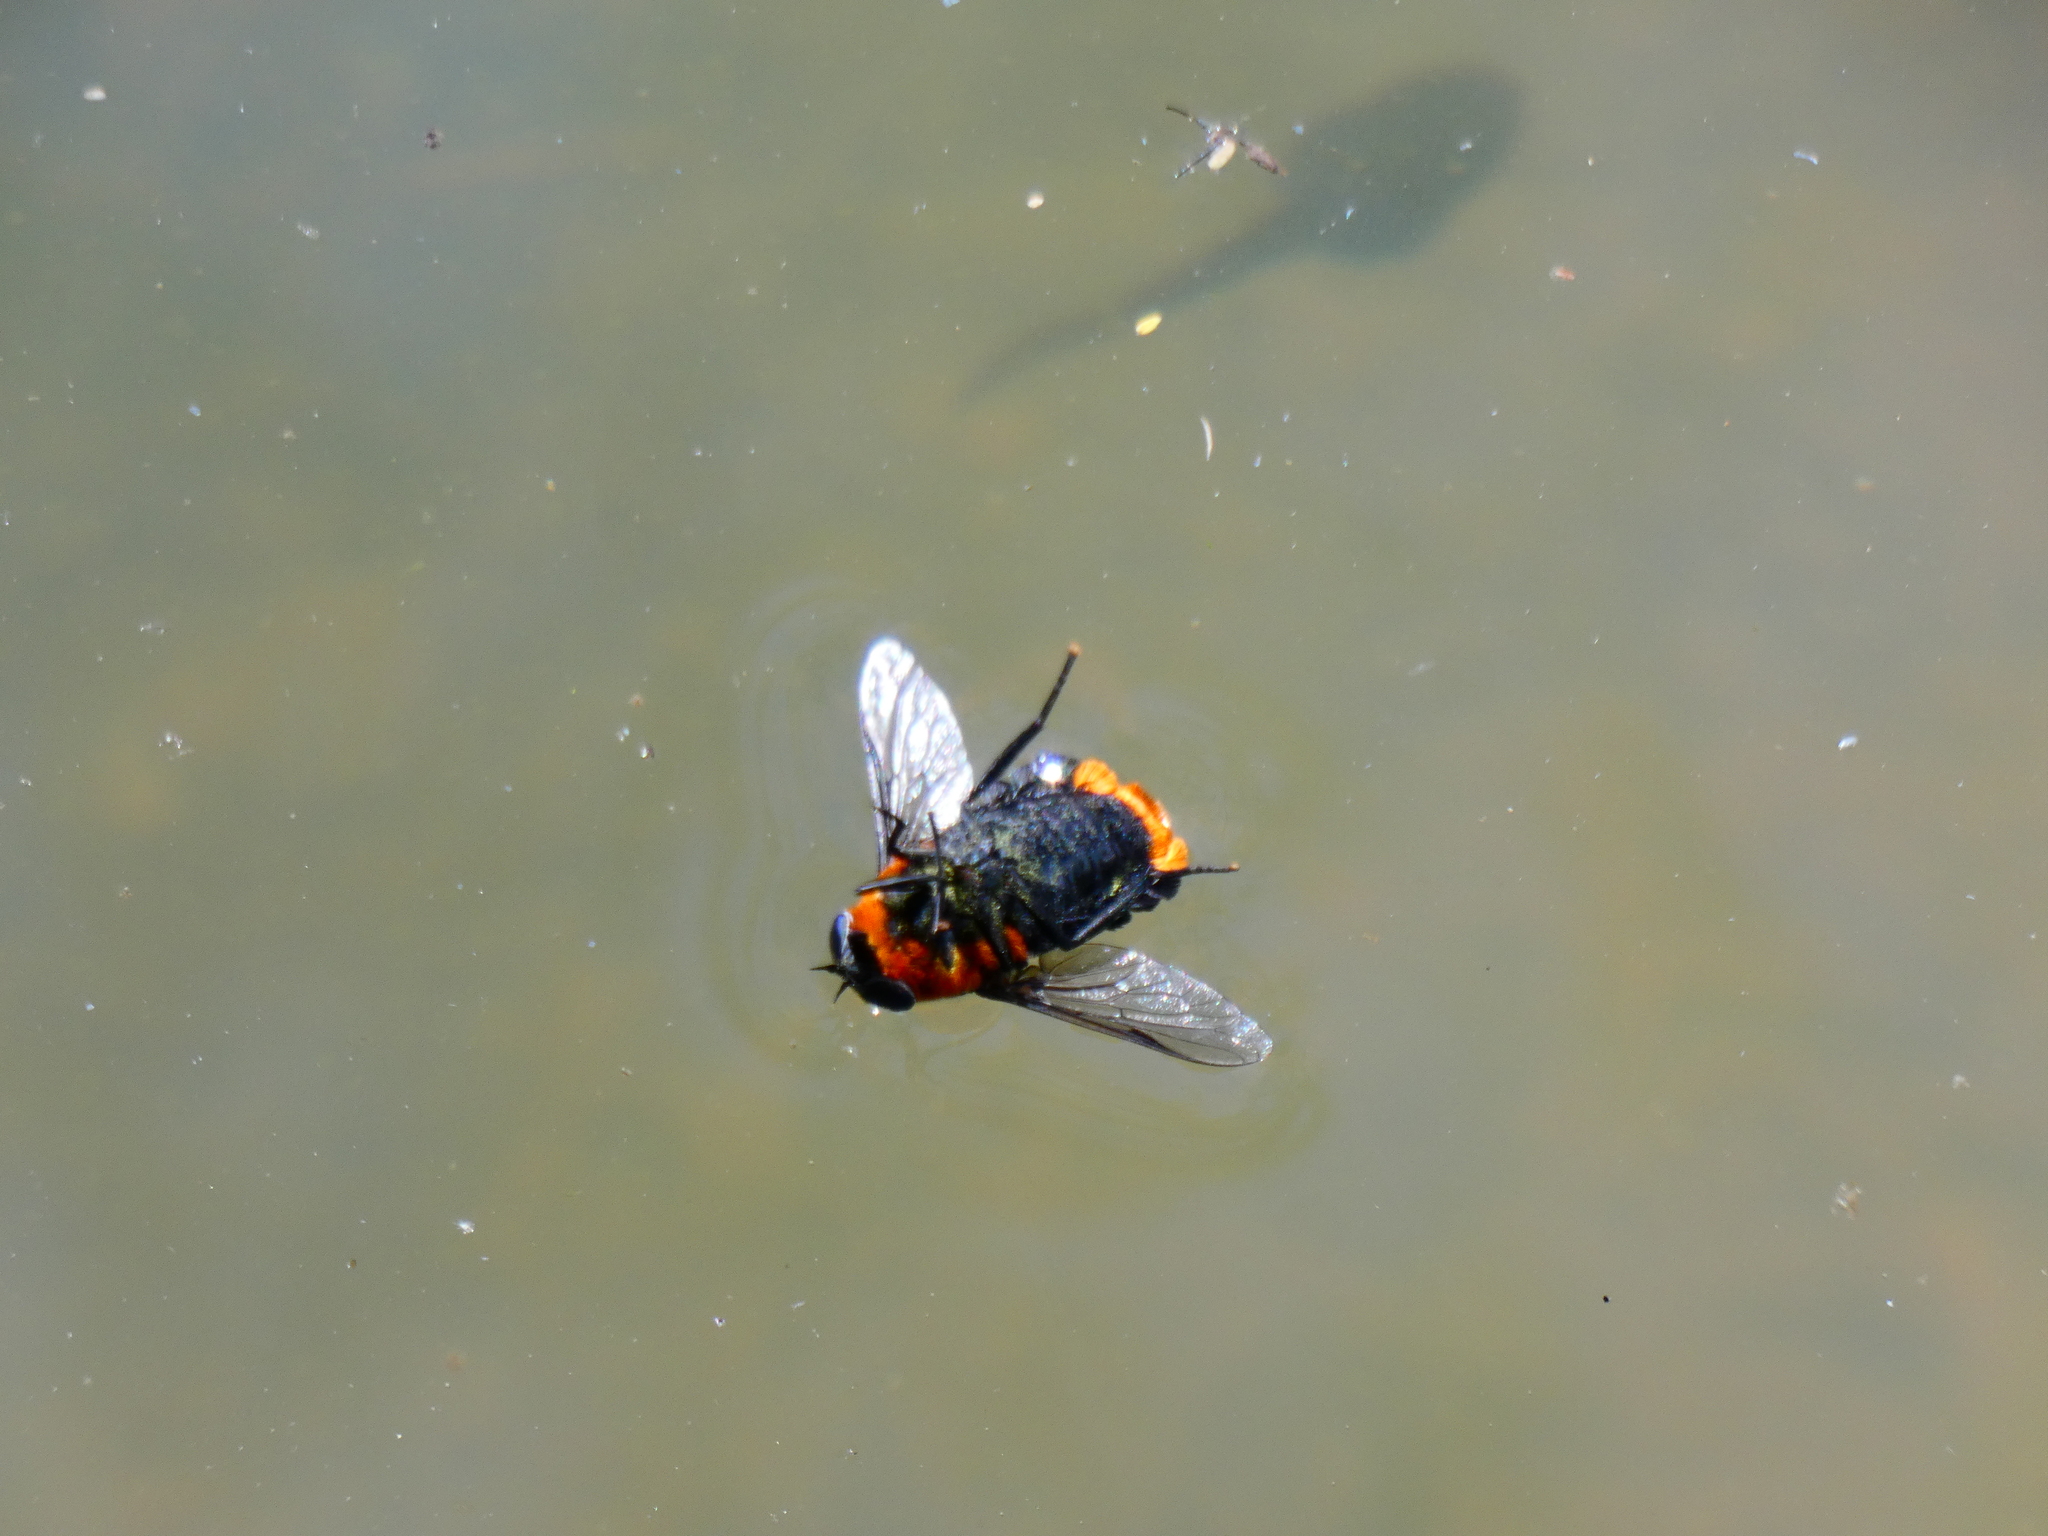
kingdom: Animalia
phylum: Arthropoda
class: Insecta
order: Diptera
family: Tabanidae
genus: Osca
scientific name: Osca lata
